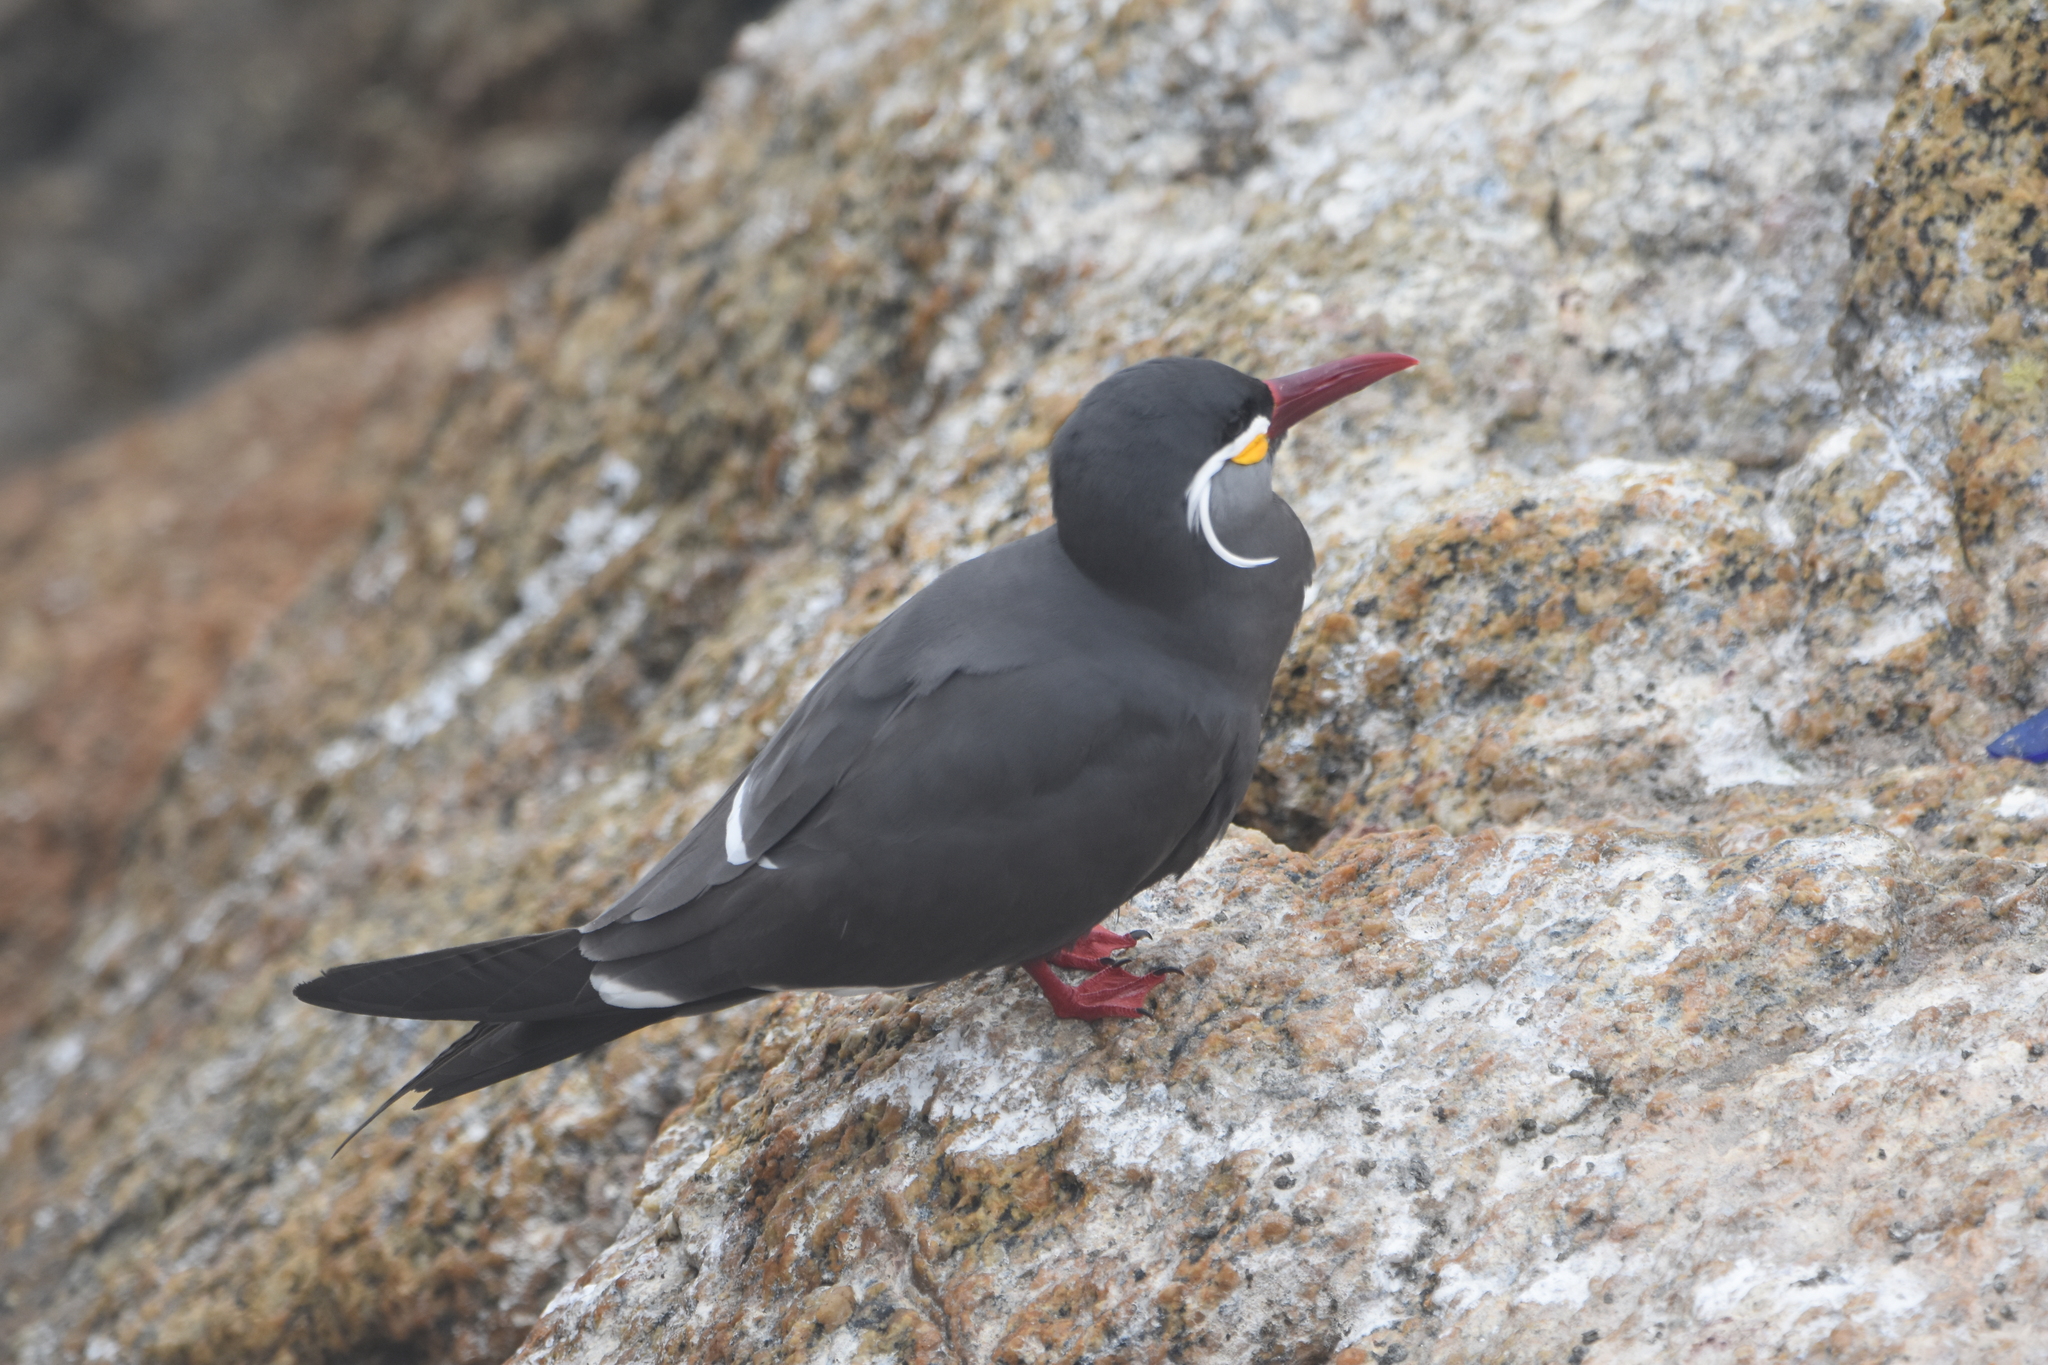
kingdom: Animalia
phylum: Chordata
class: Aves
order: Charadriiformes
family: Laridae
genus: Larosterna
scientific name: Larosterna inca
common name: Inca tern
